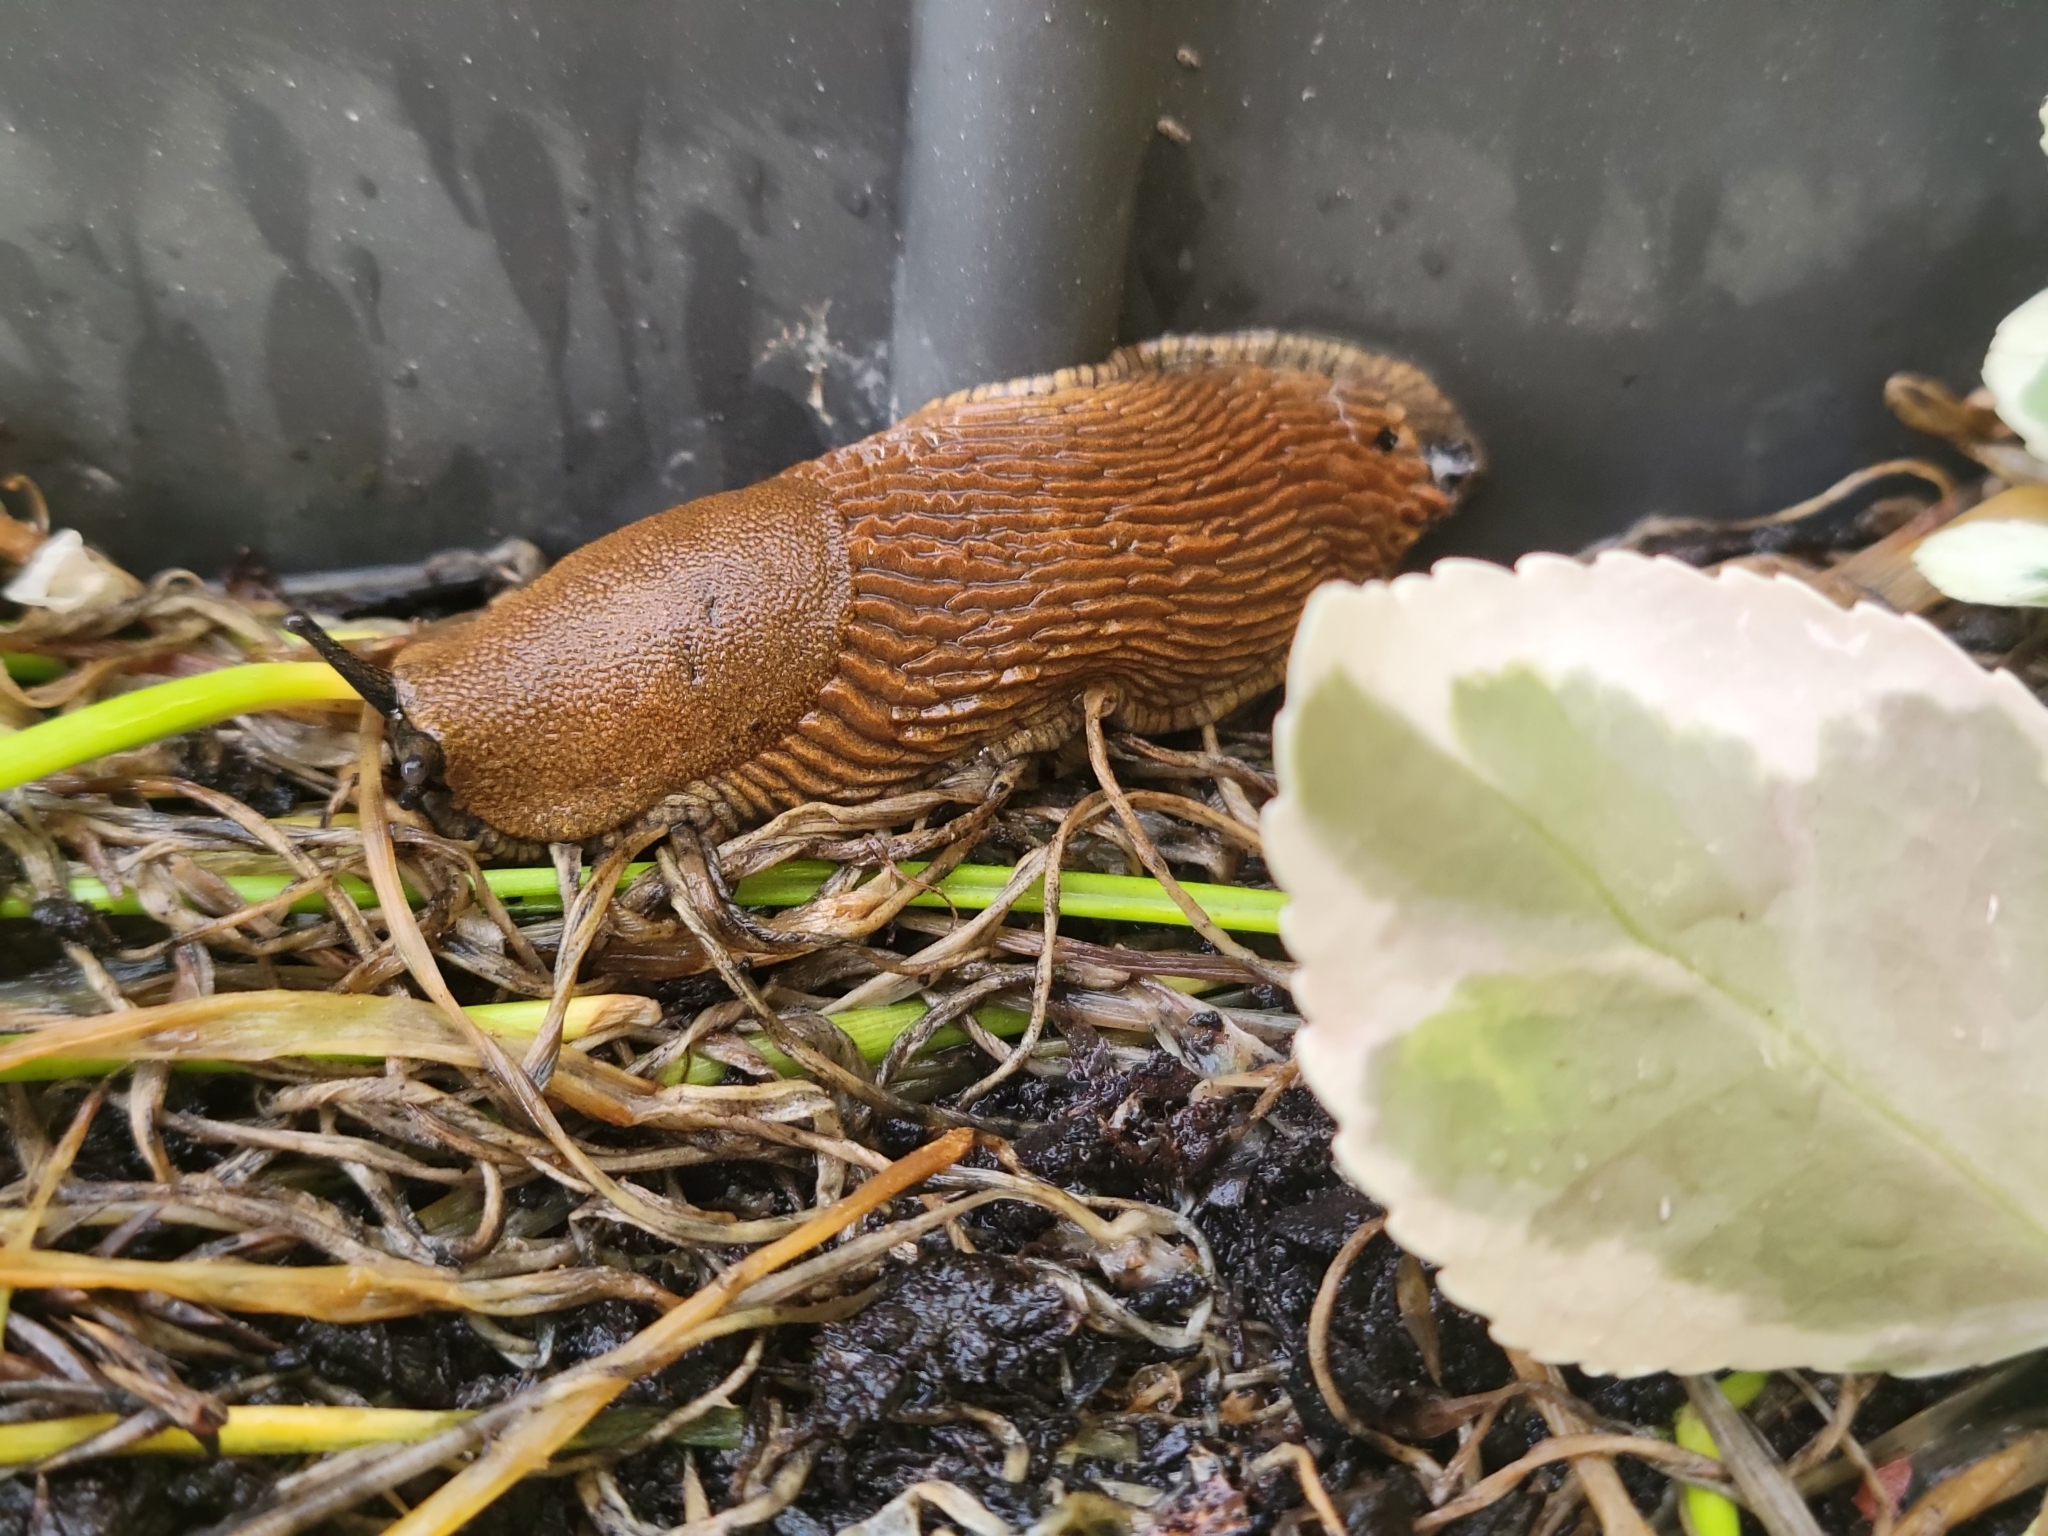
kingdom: Animalia
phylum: Mollusca
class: Gastropoda
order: Stylommatophora
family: Arionidae
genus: Arion
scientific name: Arion vulgaris
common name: Lusitanian slug
